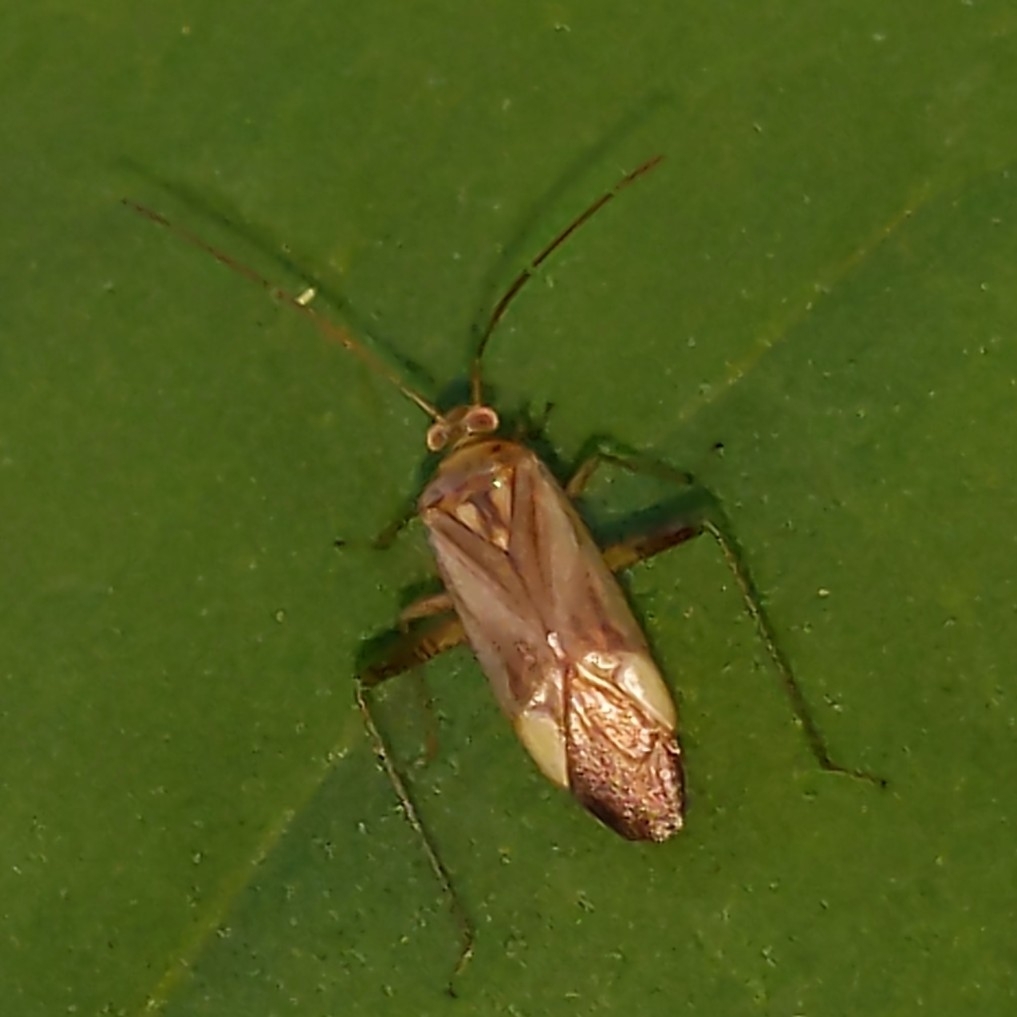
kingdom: Animalia
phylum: Arthropoda
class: Insecta
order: Hemiptera
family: Miridae
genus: Adelphocoris
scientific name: Adelphocoris lineolatus
